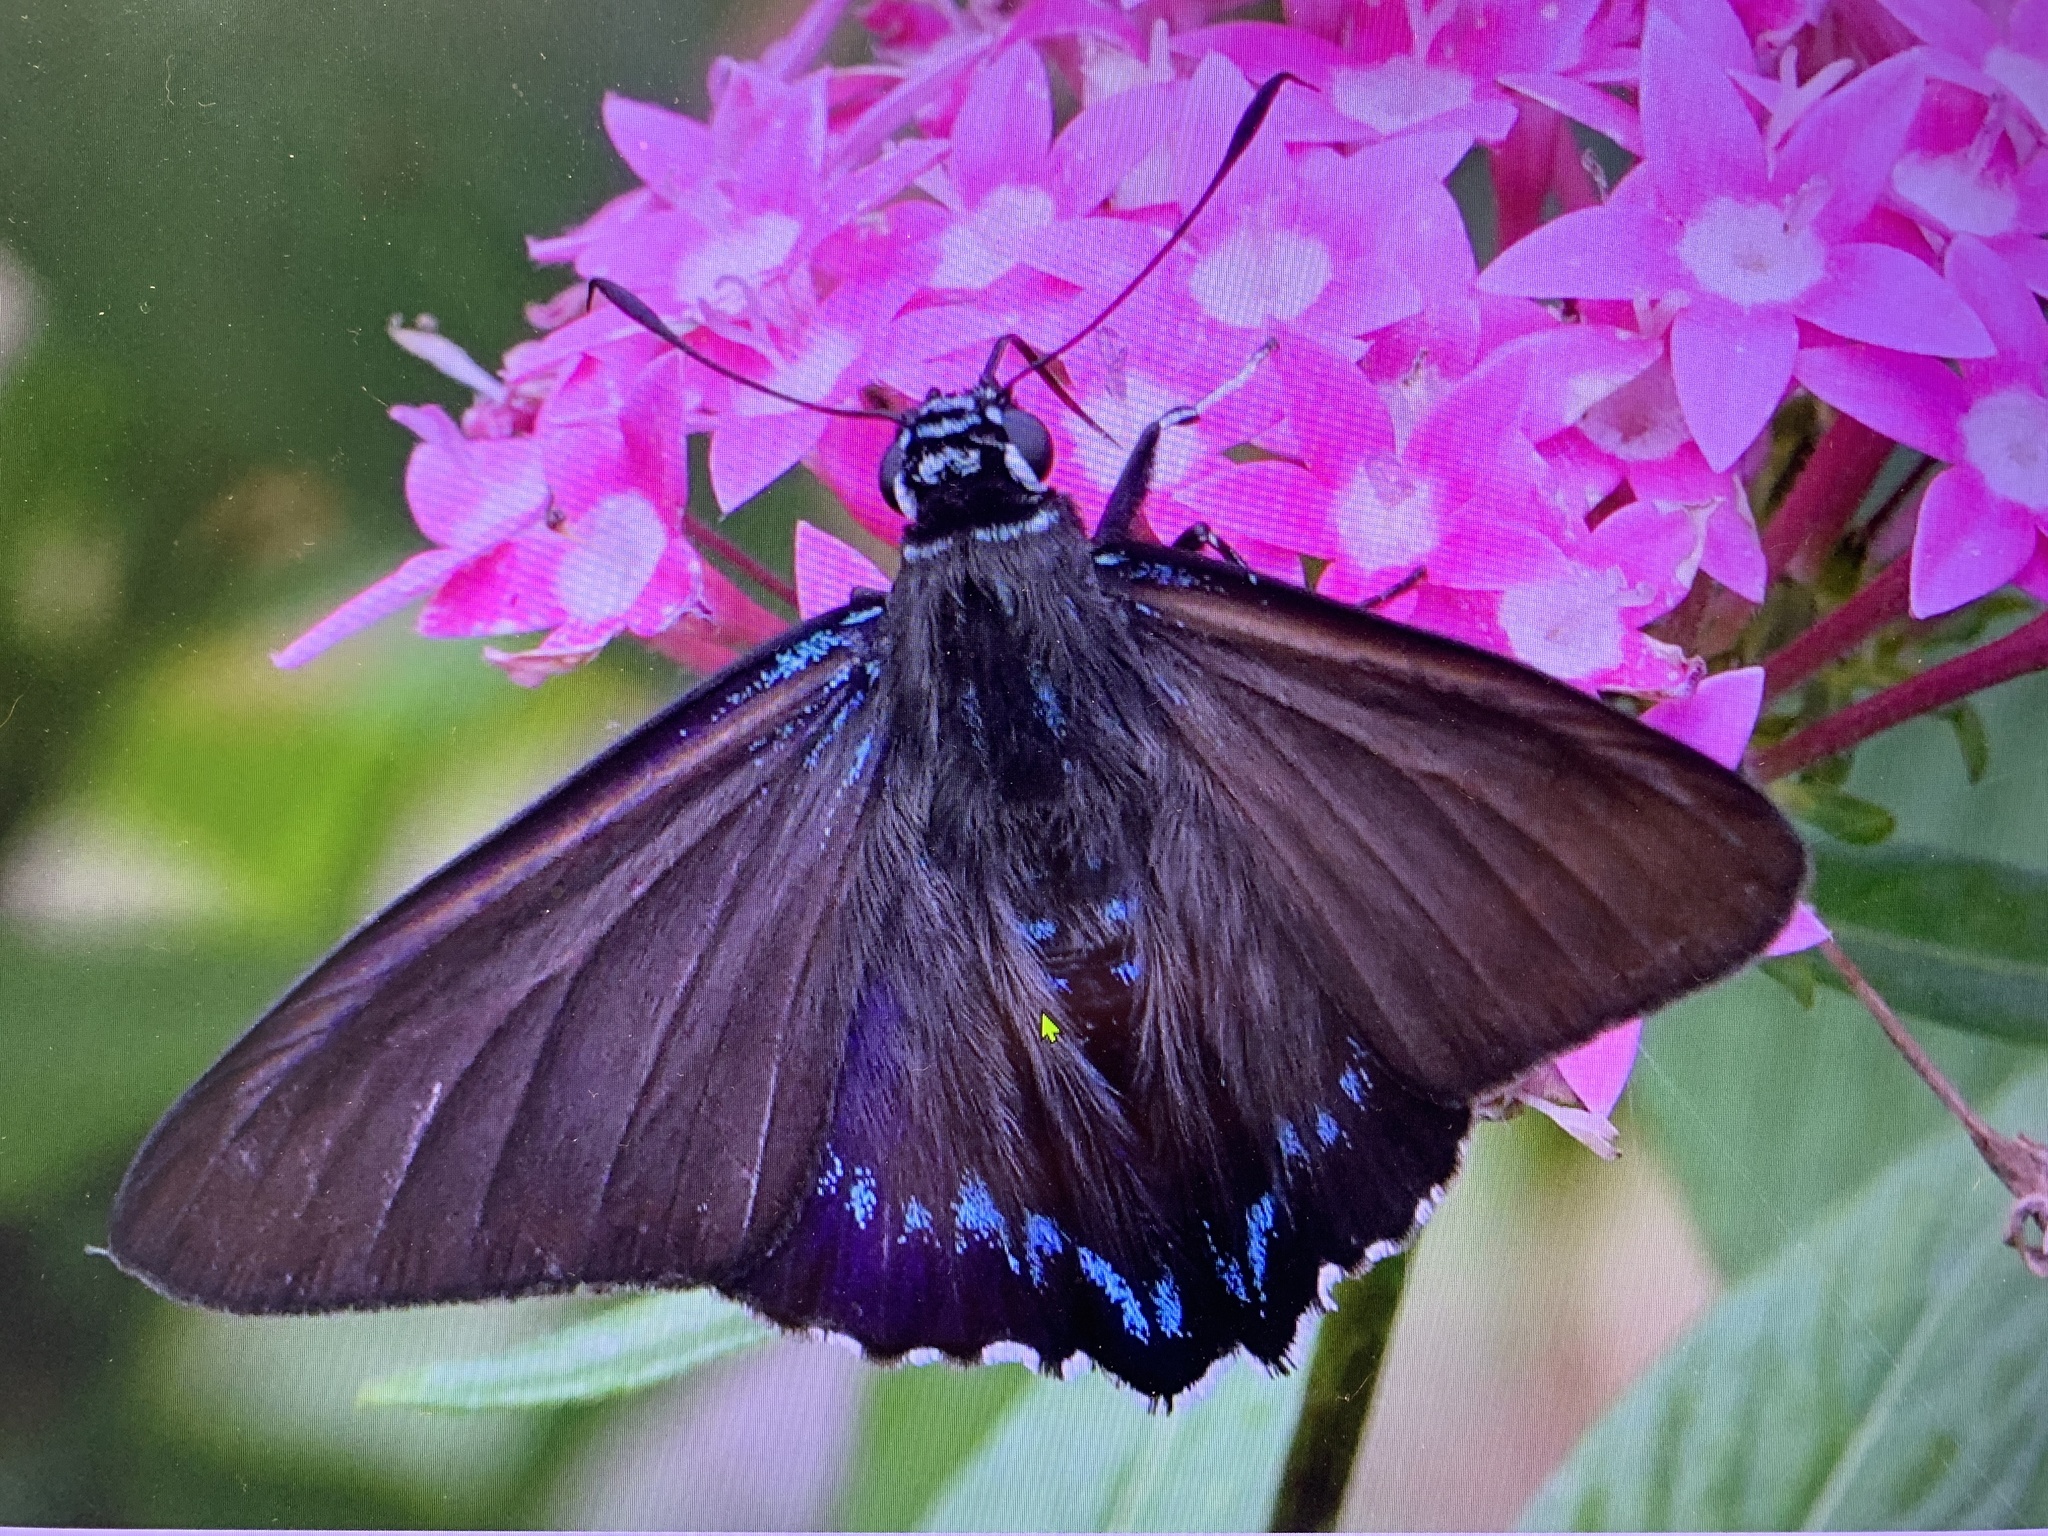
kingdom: Animalia
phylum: Arthropoda
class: Insecta
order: Lepidoptera
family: Hesperiidae
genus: Phocides
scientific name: Phocides pigmalion
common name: Mangrove skipper
